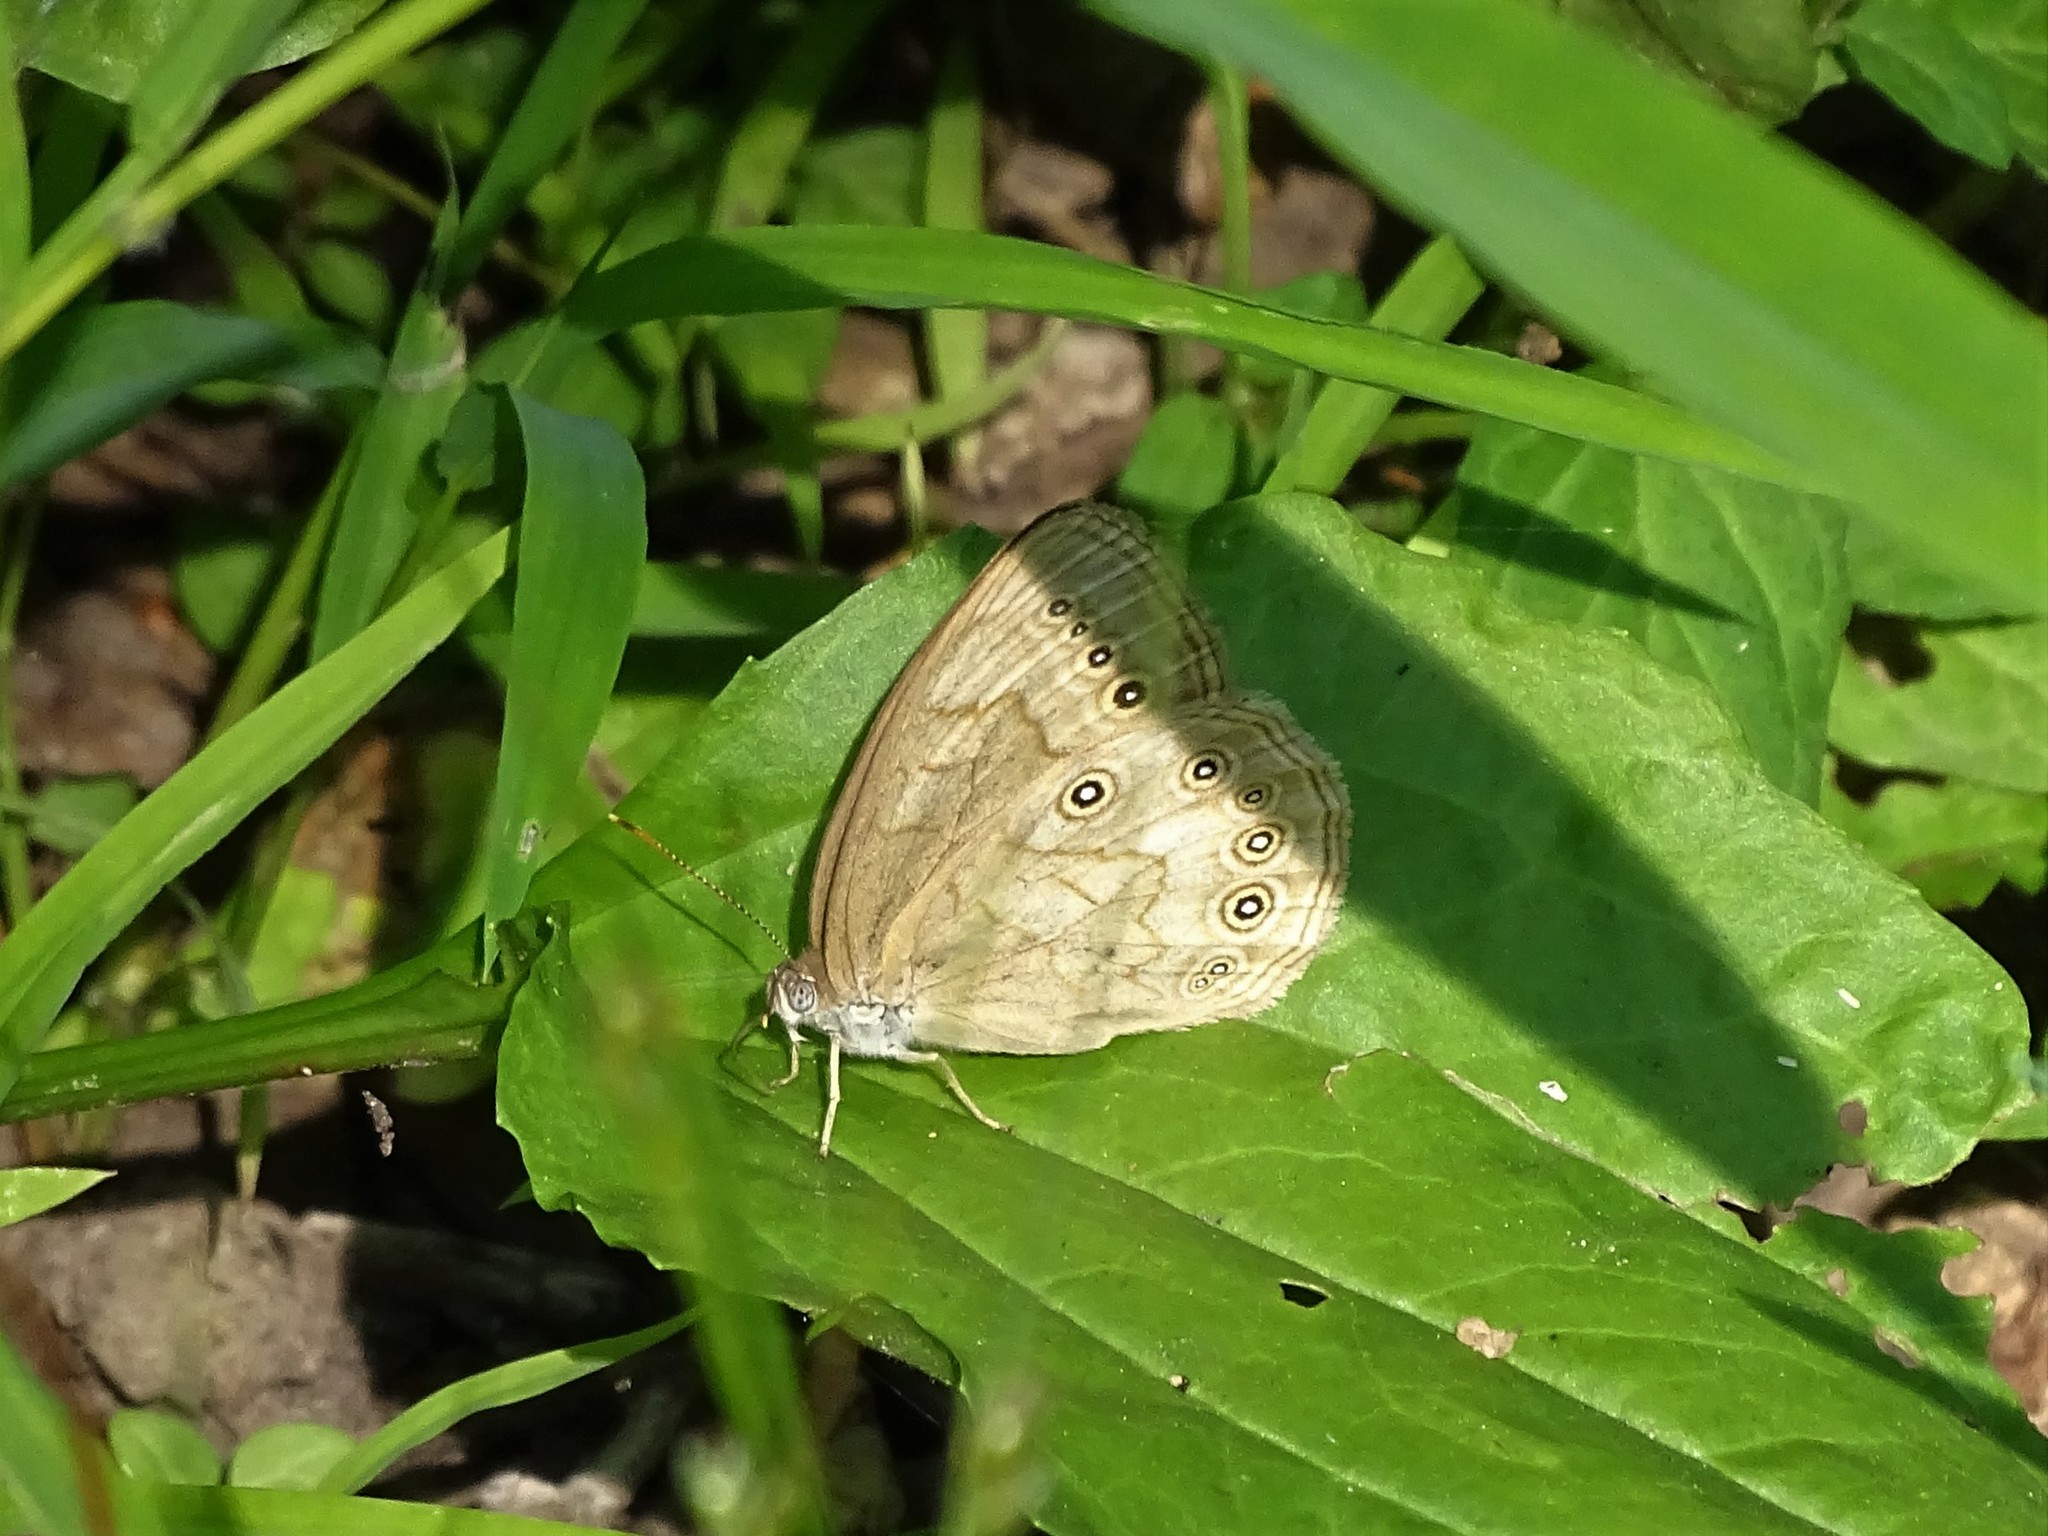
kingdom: Animalia
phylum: Arthropoda
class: Insecta
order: Lepidoptera
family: Nymphalidae
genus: Lethe
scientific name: Lethe eurydice
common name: Eyed brown
